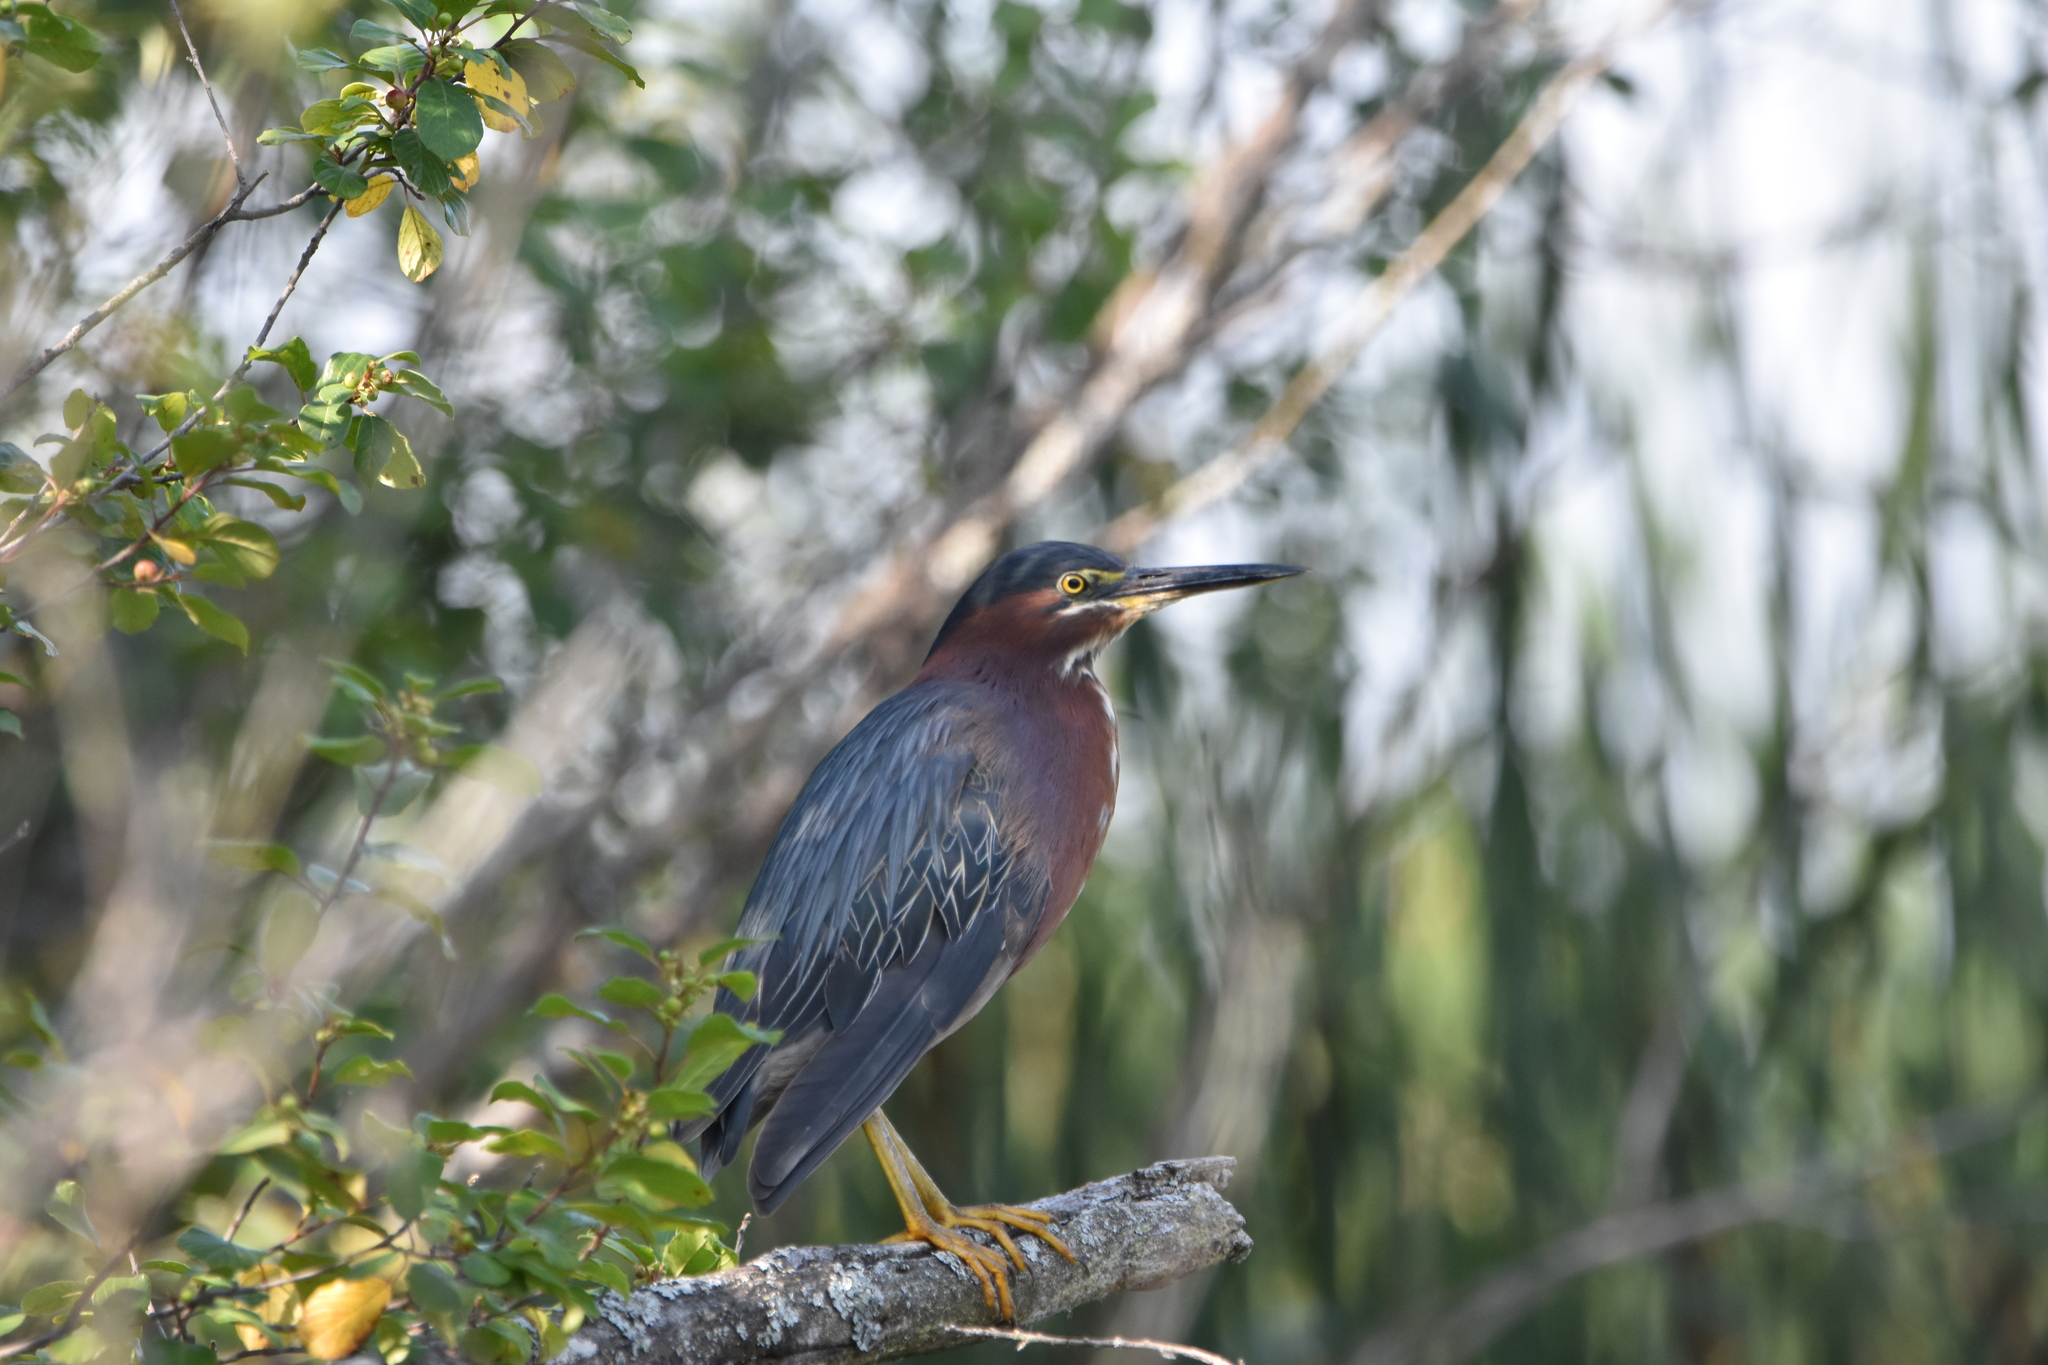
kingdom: Animalia
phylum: Chordata
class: Aves
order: Pelecaniformes
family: Ardeidae
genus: Butorides
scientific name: Butorides virescens
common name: Green heron
